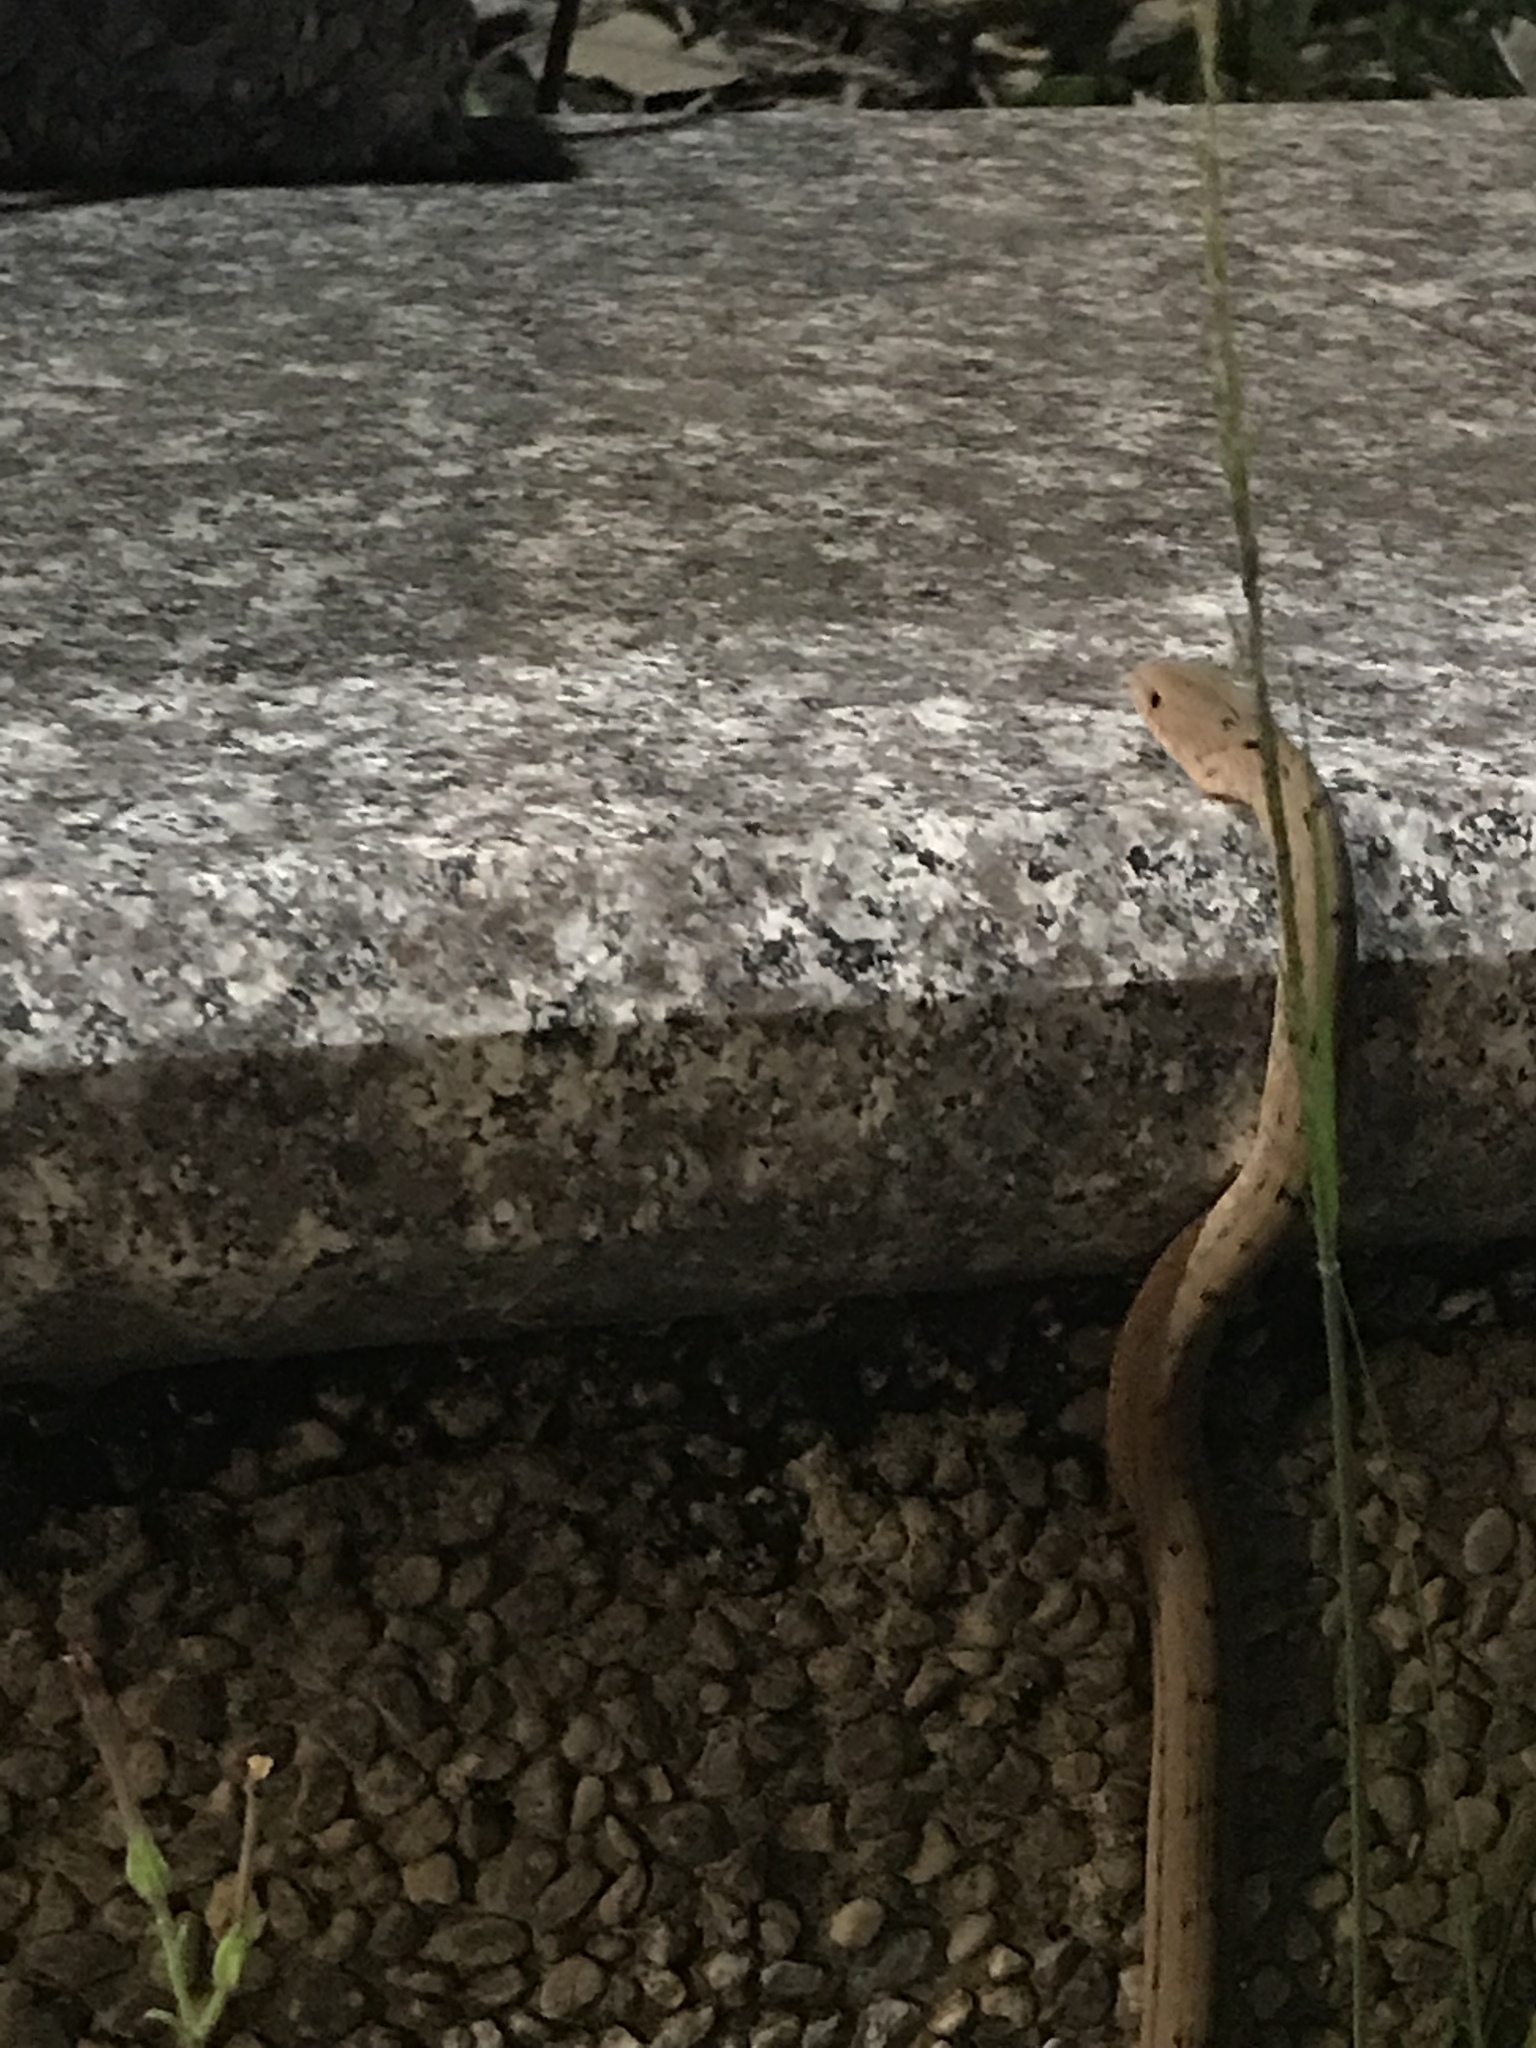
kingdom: Animalia
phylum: Chordata
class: Squamata
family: Colubridae
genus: Elaphe
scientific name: Elaphe carinata
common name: Taiwan stink snake
